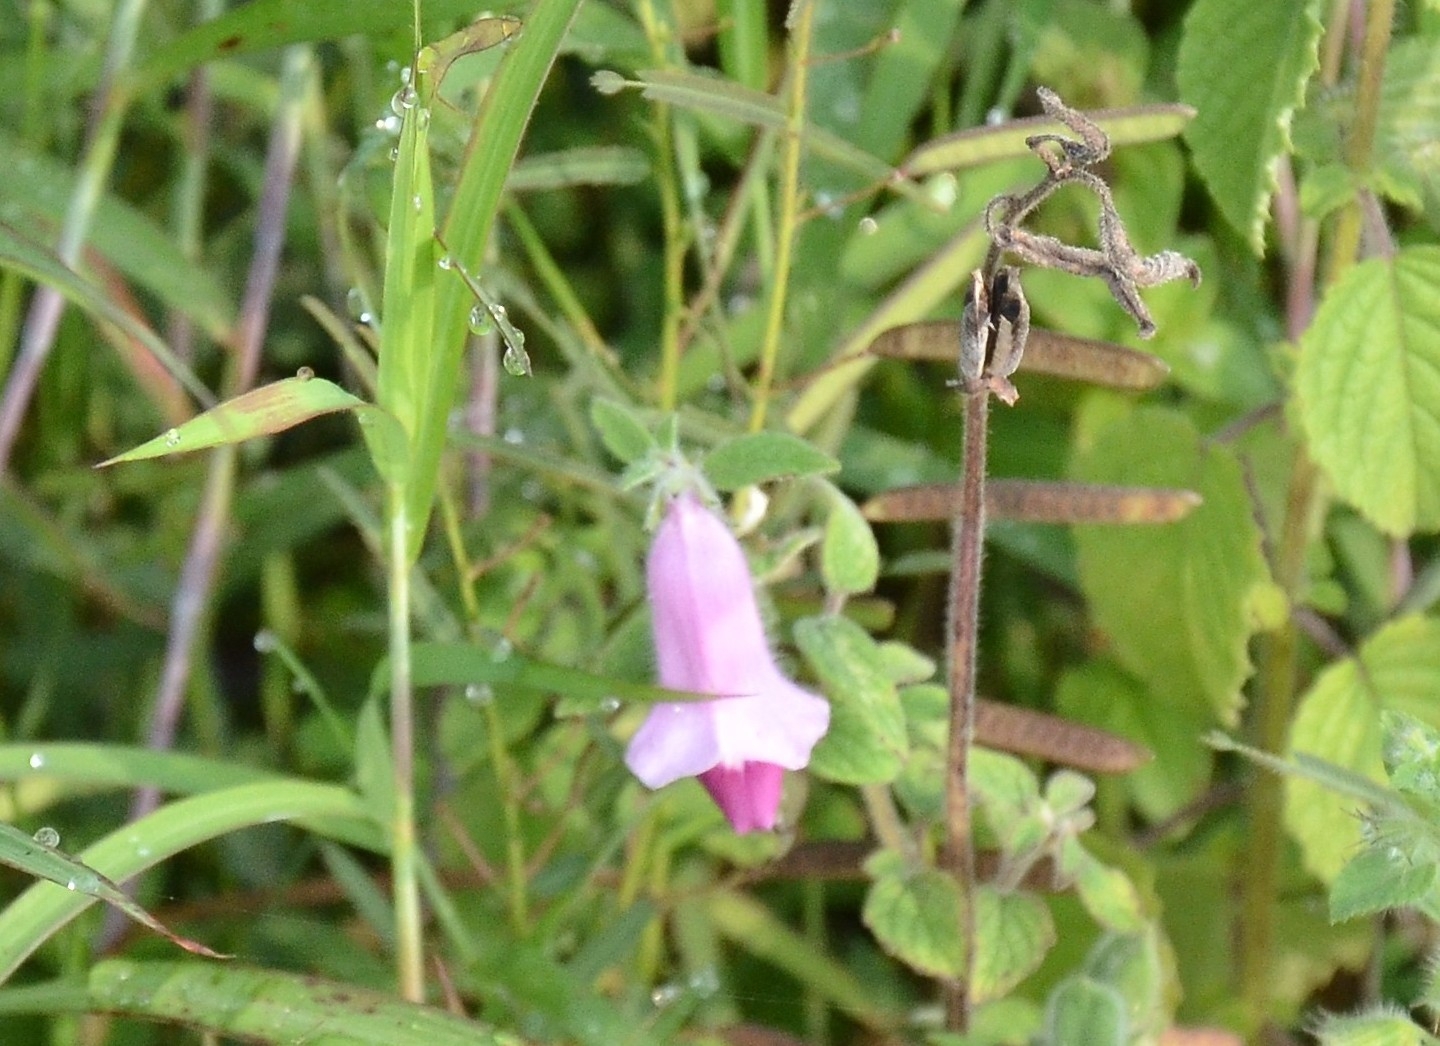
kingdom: Plantae
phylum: Tracheophyta
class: Magnoliopsida
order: Lamiales
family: Pedaliaceae
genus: Sesamum
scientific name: Sesamum indicum
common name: Sesame
